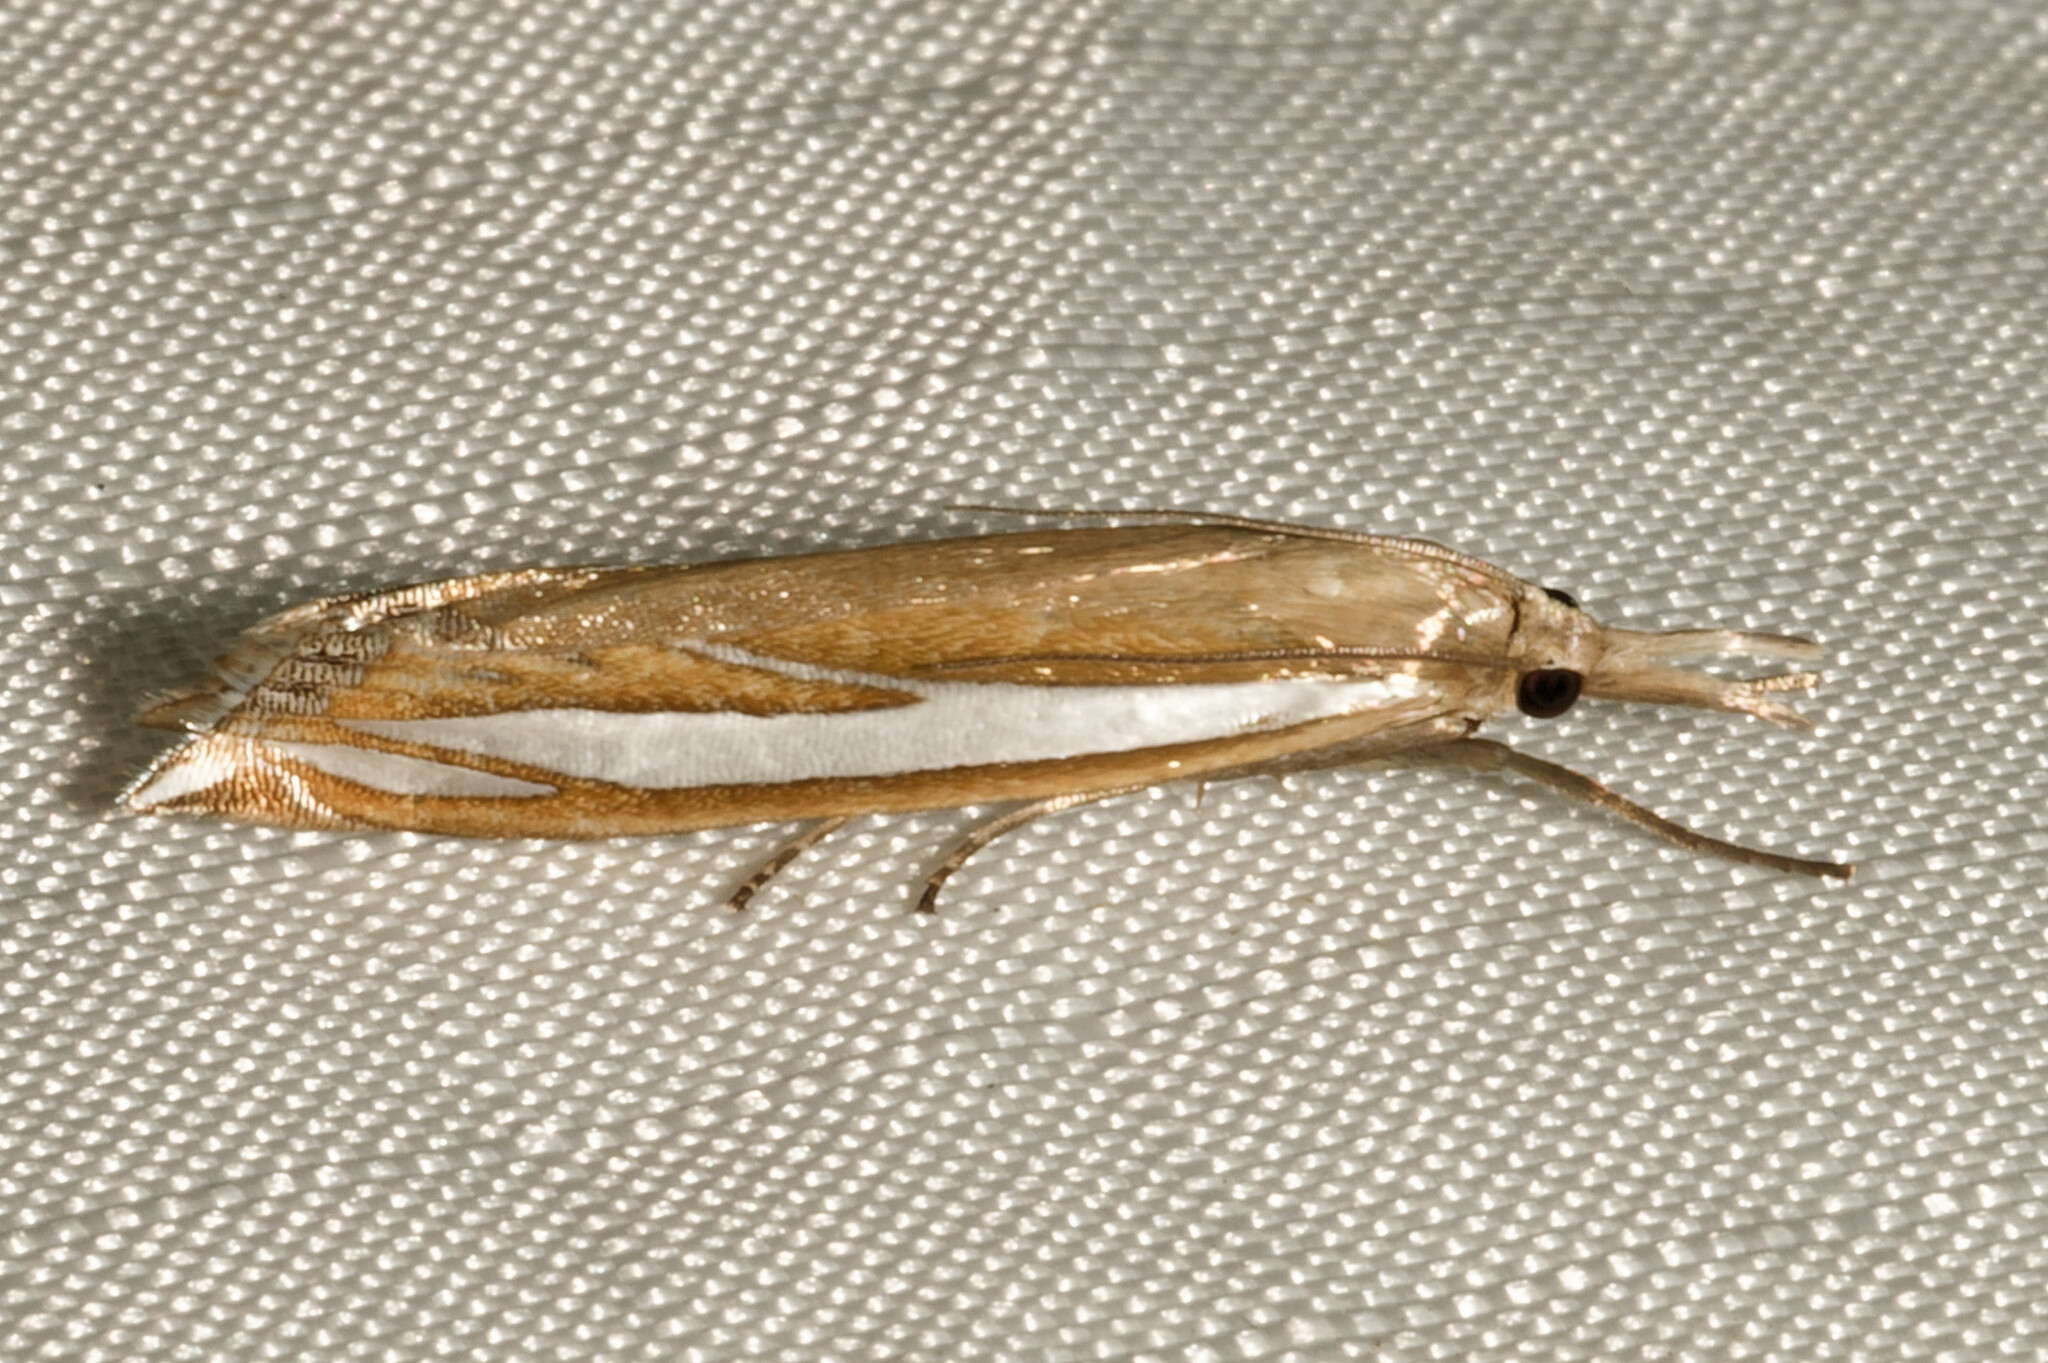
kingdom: Animalia
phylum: Arthropoda
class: Insecta
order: Lepidoptera
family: Crambidae
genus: Crambus
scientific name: Crambus satrapellus
